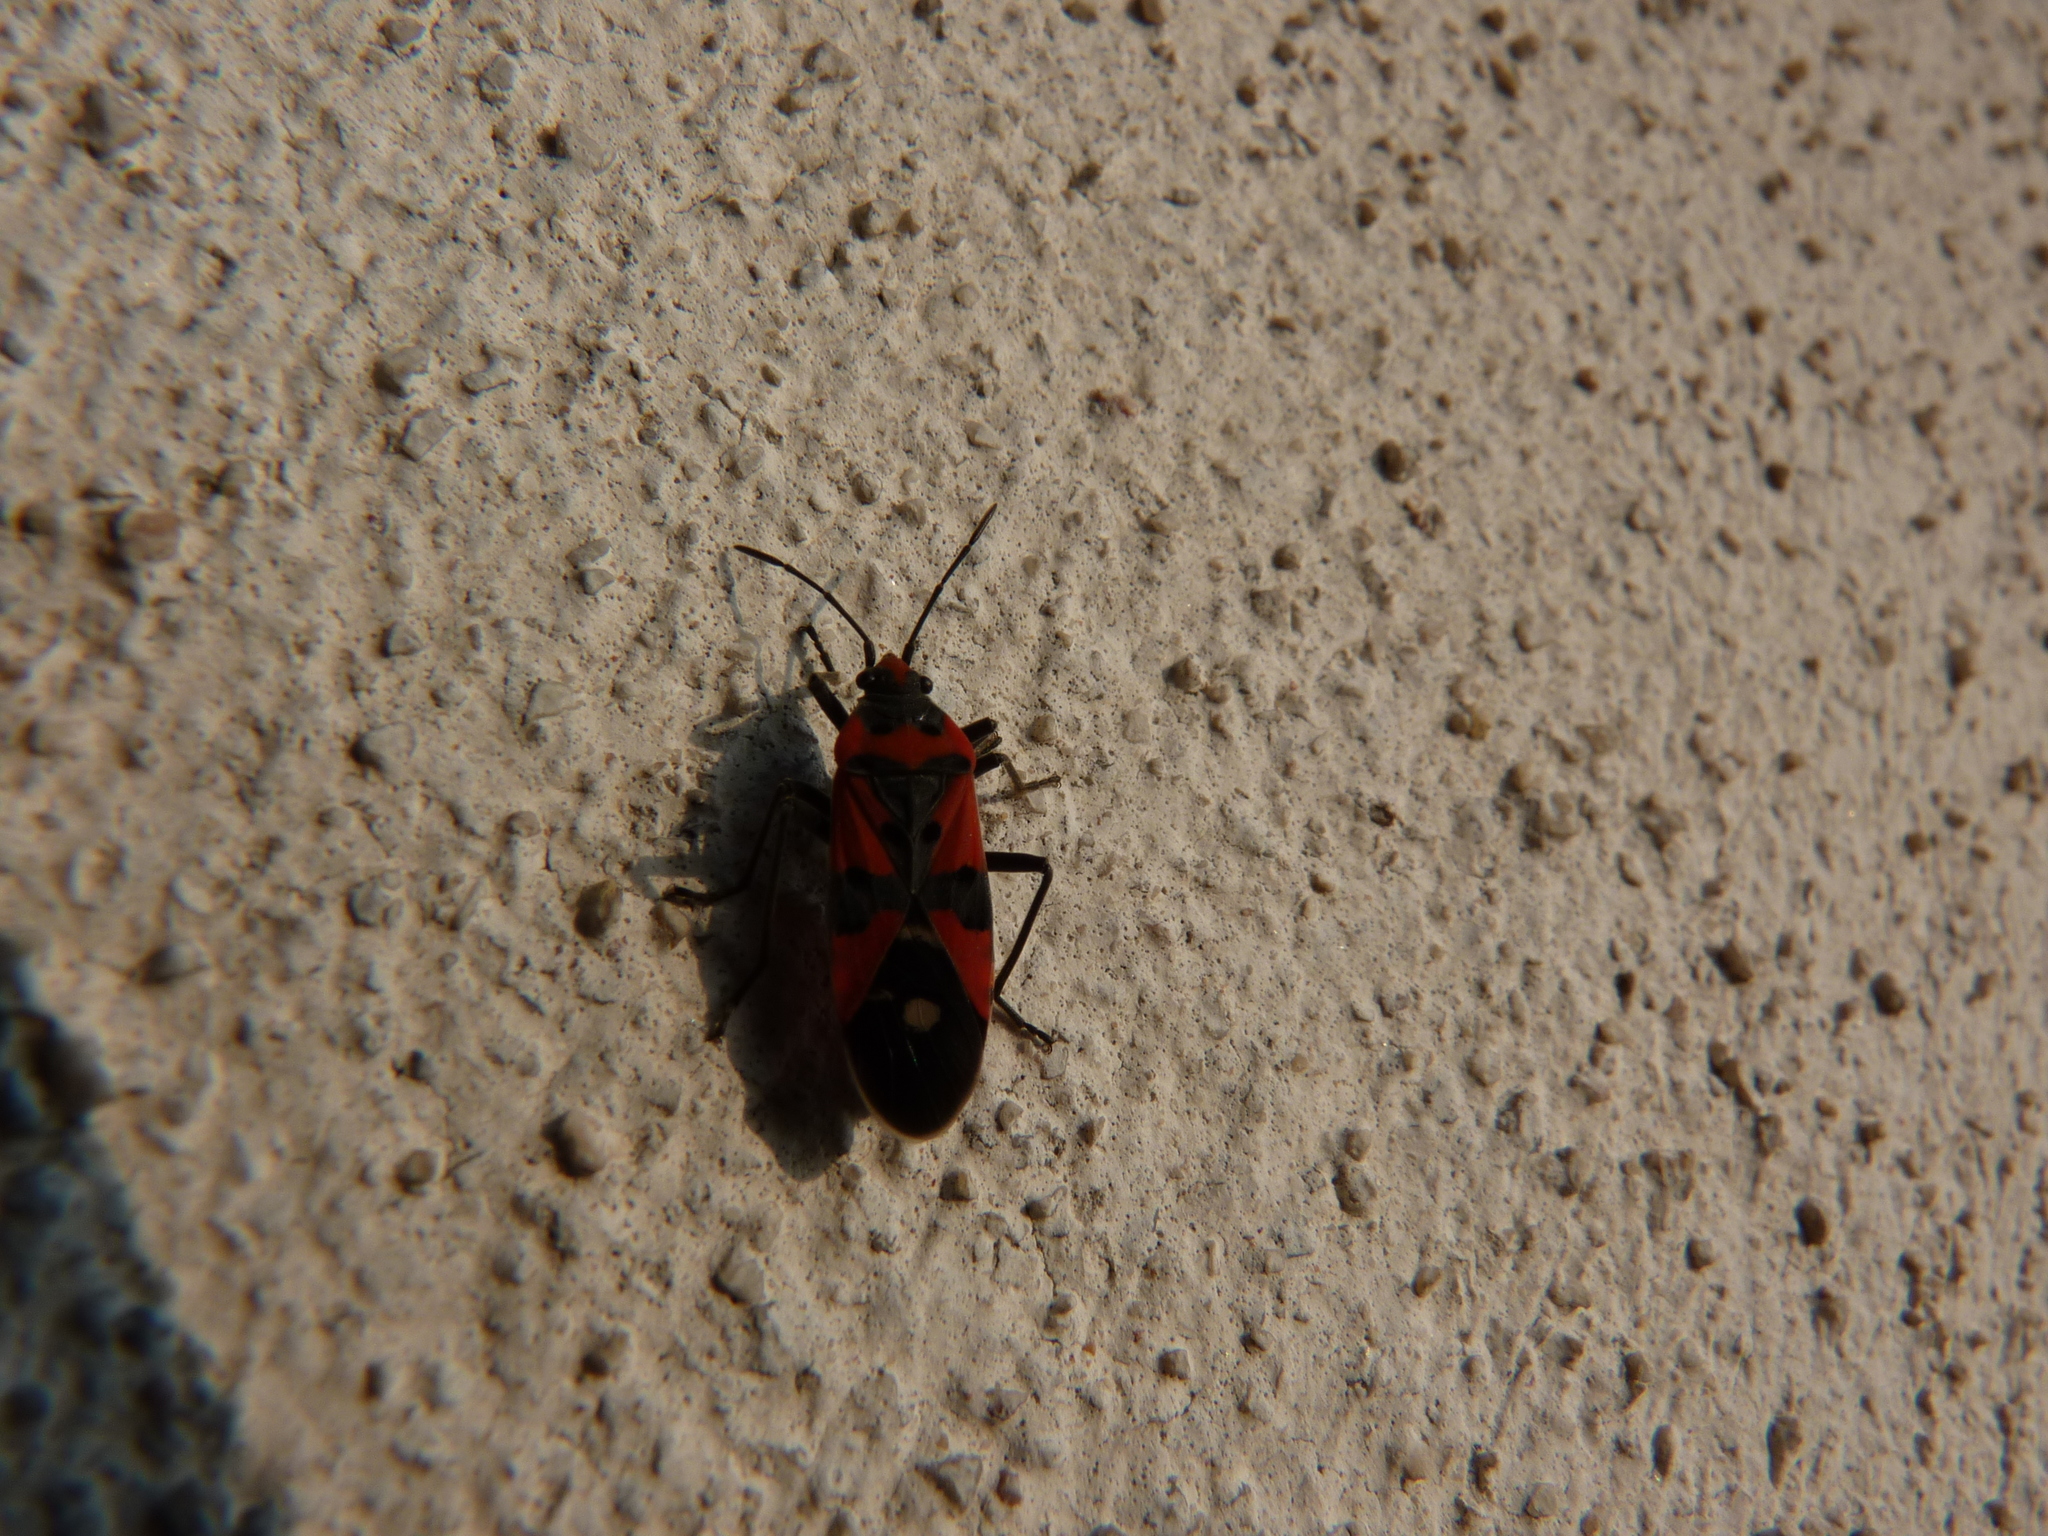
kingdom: Animalia
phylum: Arthropoda
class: Insecta
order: Hemiptera
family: Lygaeidae
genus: Lygaeus
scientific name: Lygaeus equestris
